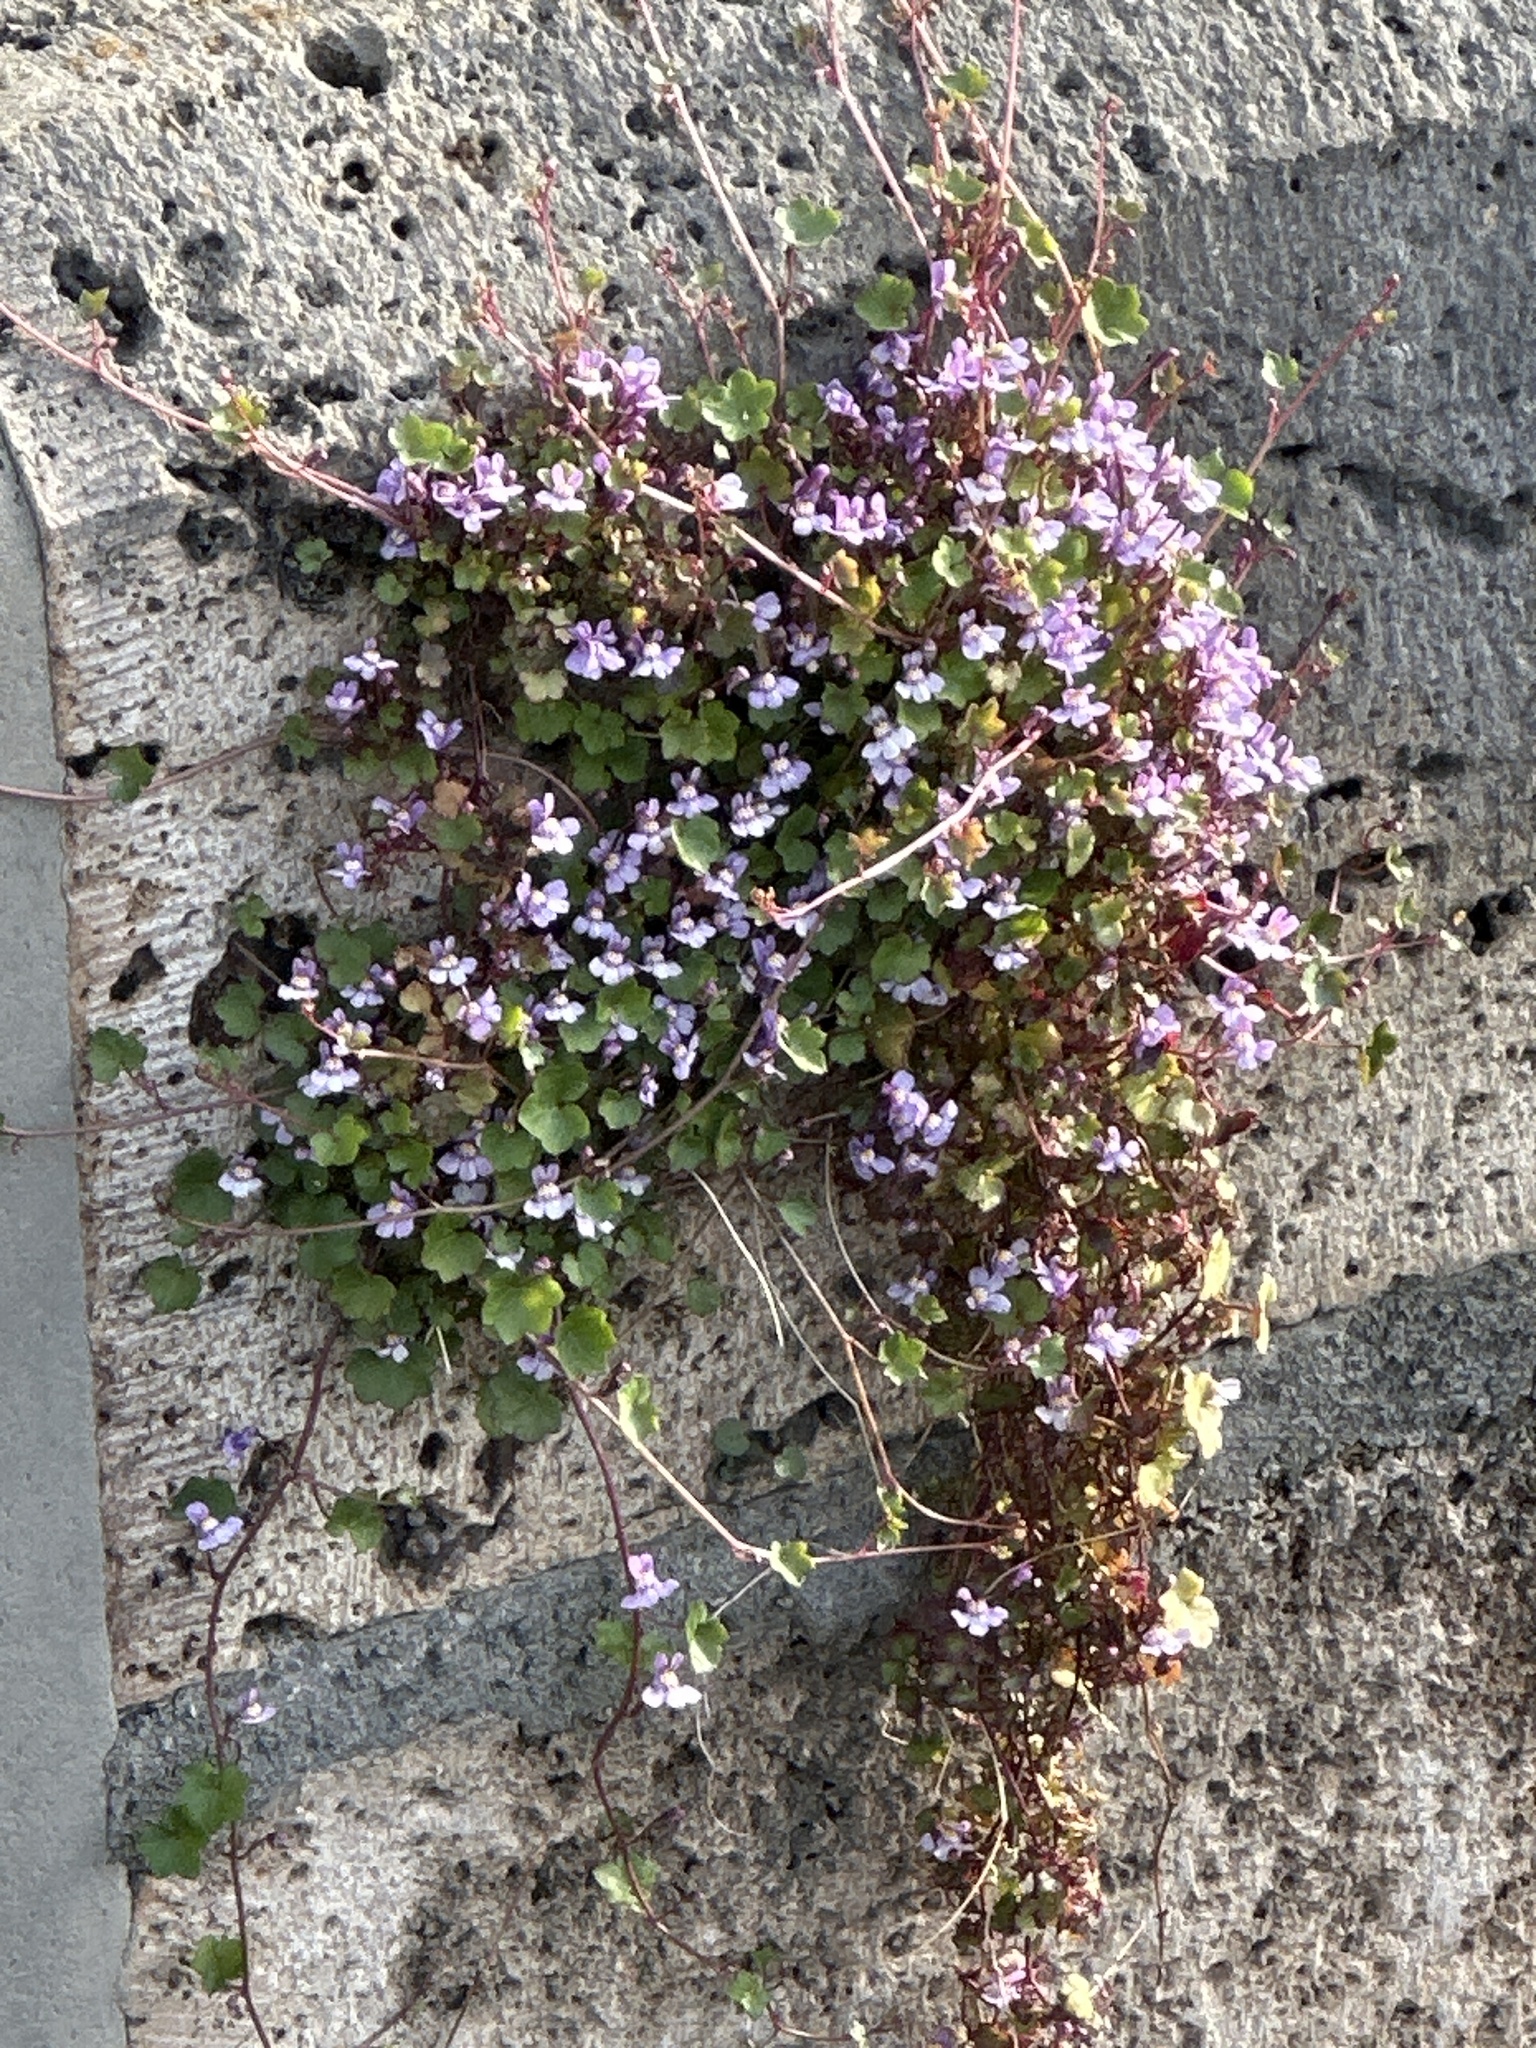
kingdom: Plantae
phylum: Tracheophyta
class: Magnoliopsida
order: Lamiales
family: Plantaginaceae
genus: Cymbalaria
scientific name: Cymbalaria muralis
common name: Ivy-leaved toadflax
